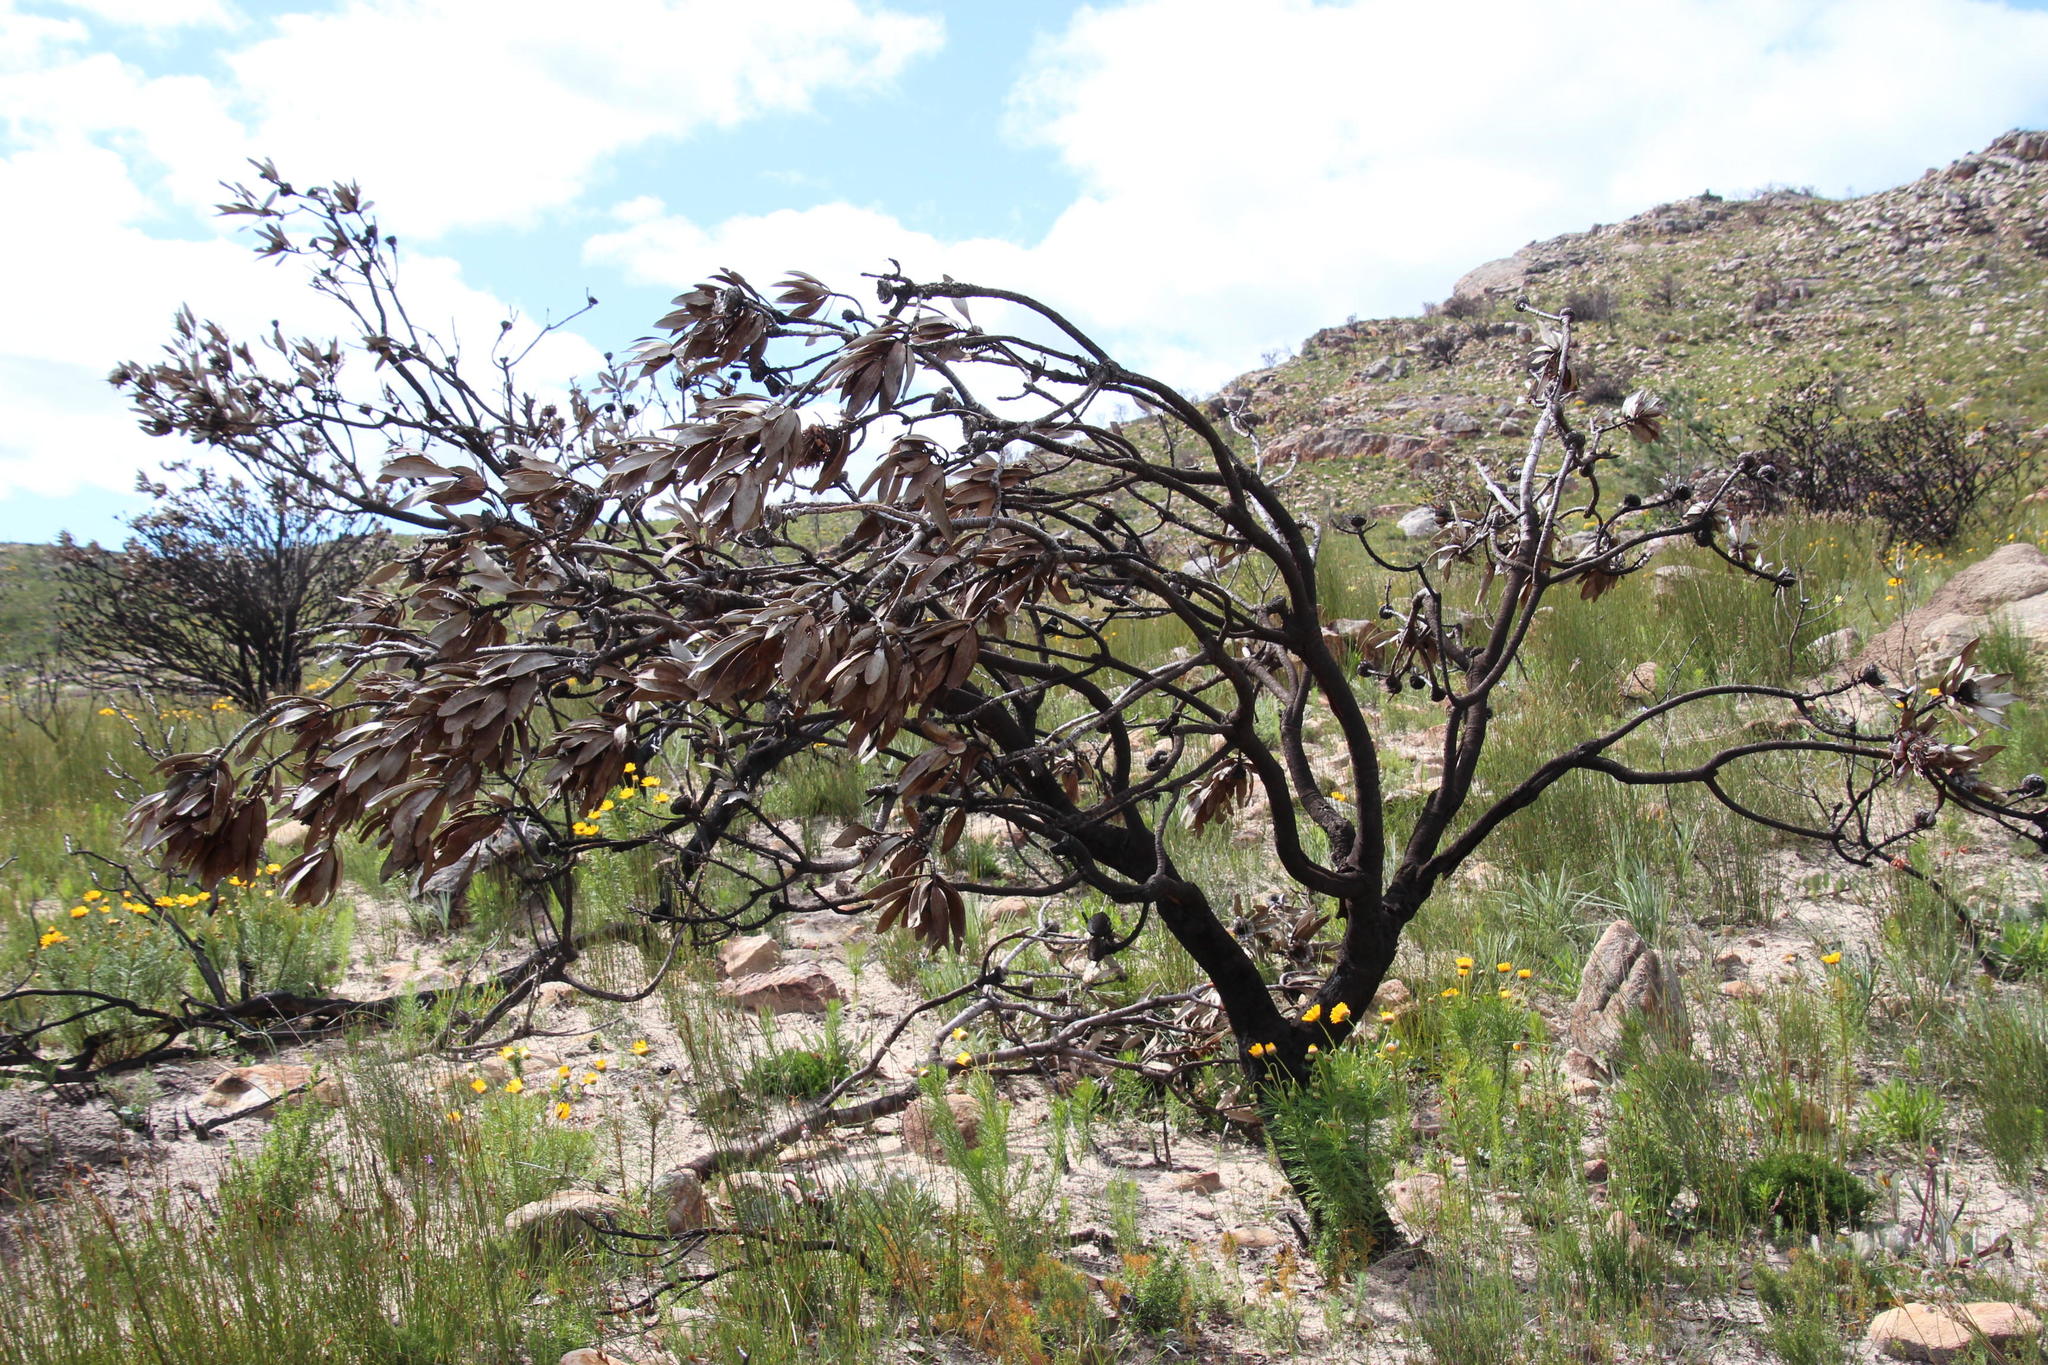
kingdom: Plantae
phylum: Tracheophyta
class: Magnoliopsida
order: Proteales
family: Proteaceae
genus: Protea
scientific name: Protea laurifolia
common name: Grey-leaf sugarbsh
